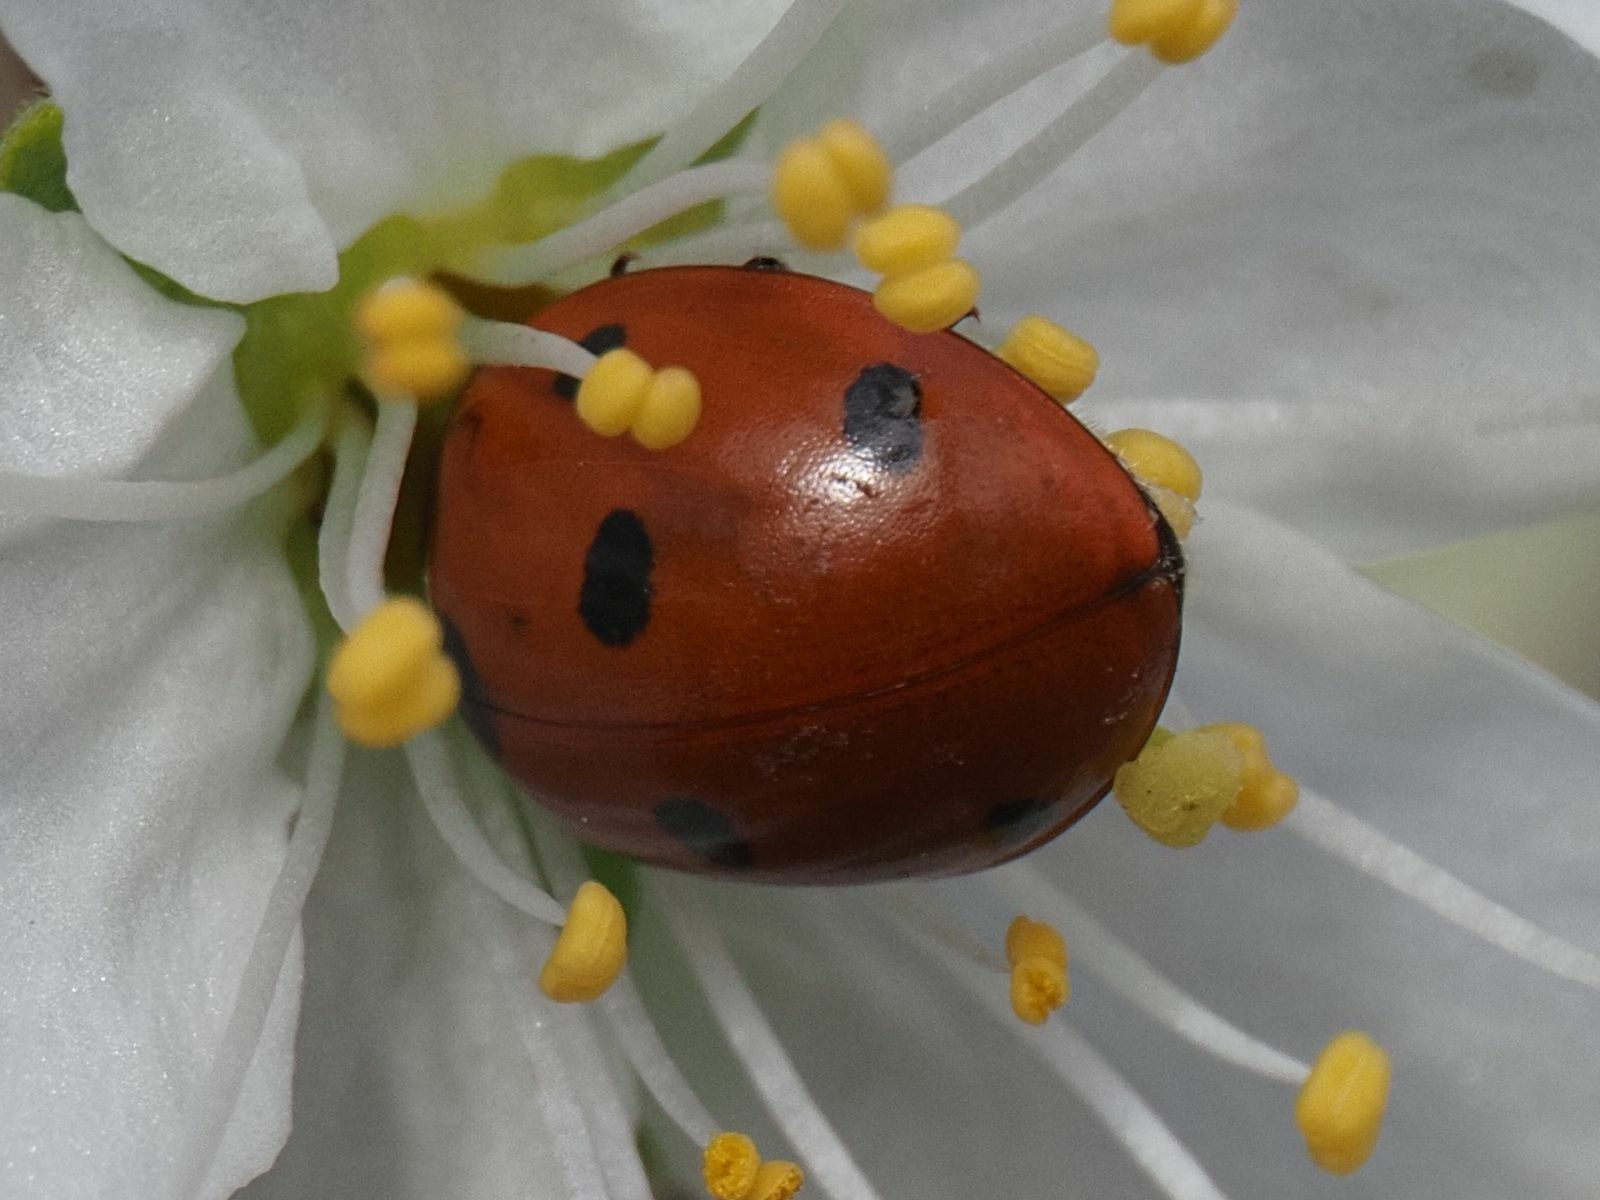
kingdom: Animalia
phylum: Arthropoda
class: Insecta
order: Coleoptera
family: Coccinellidae
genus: Coccinella
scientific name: Coccinella septempunctata
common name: Sevenspotted lady beetle
